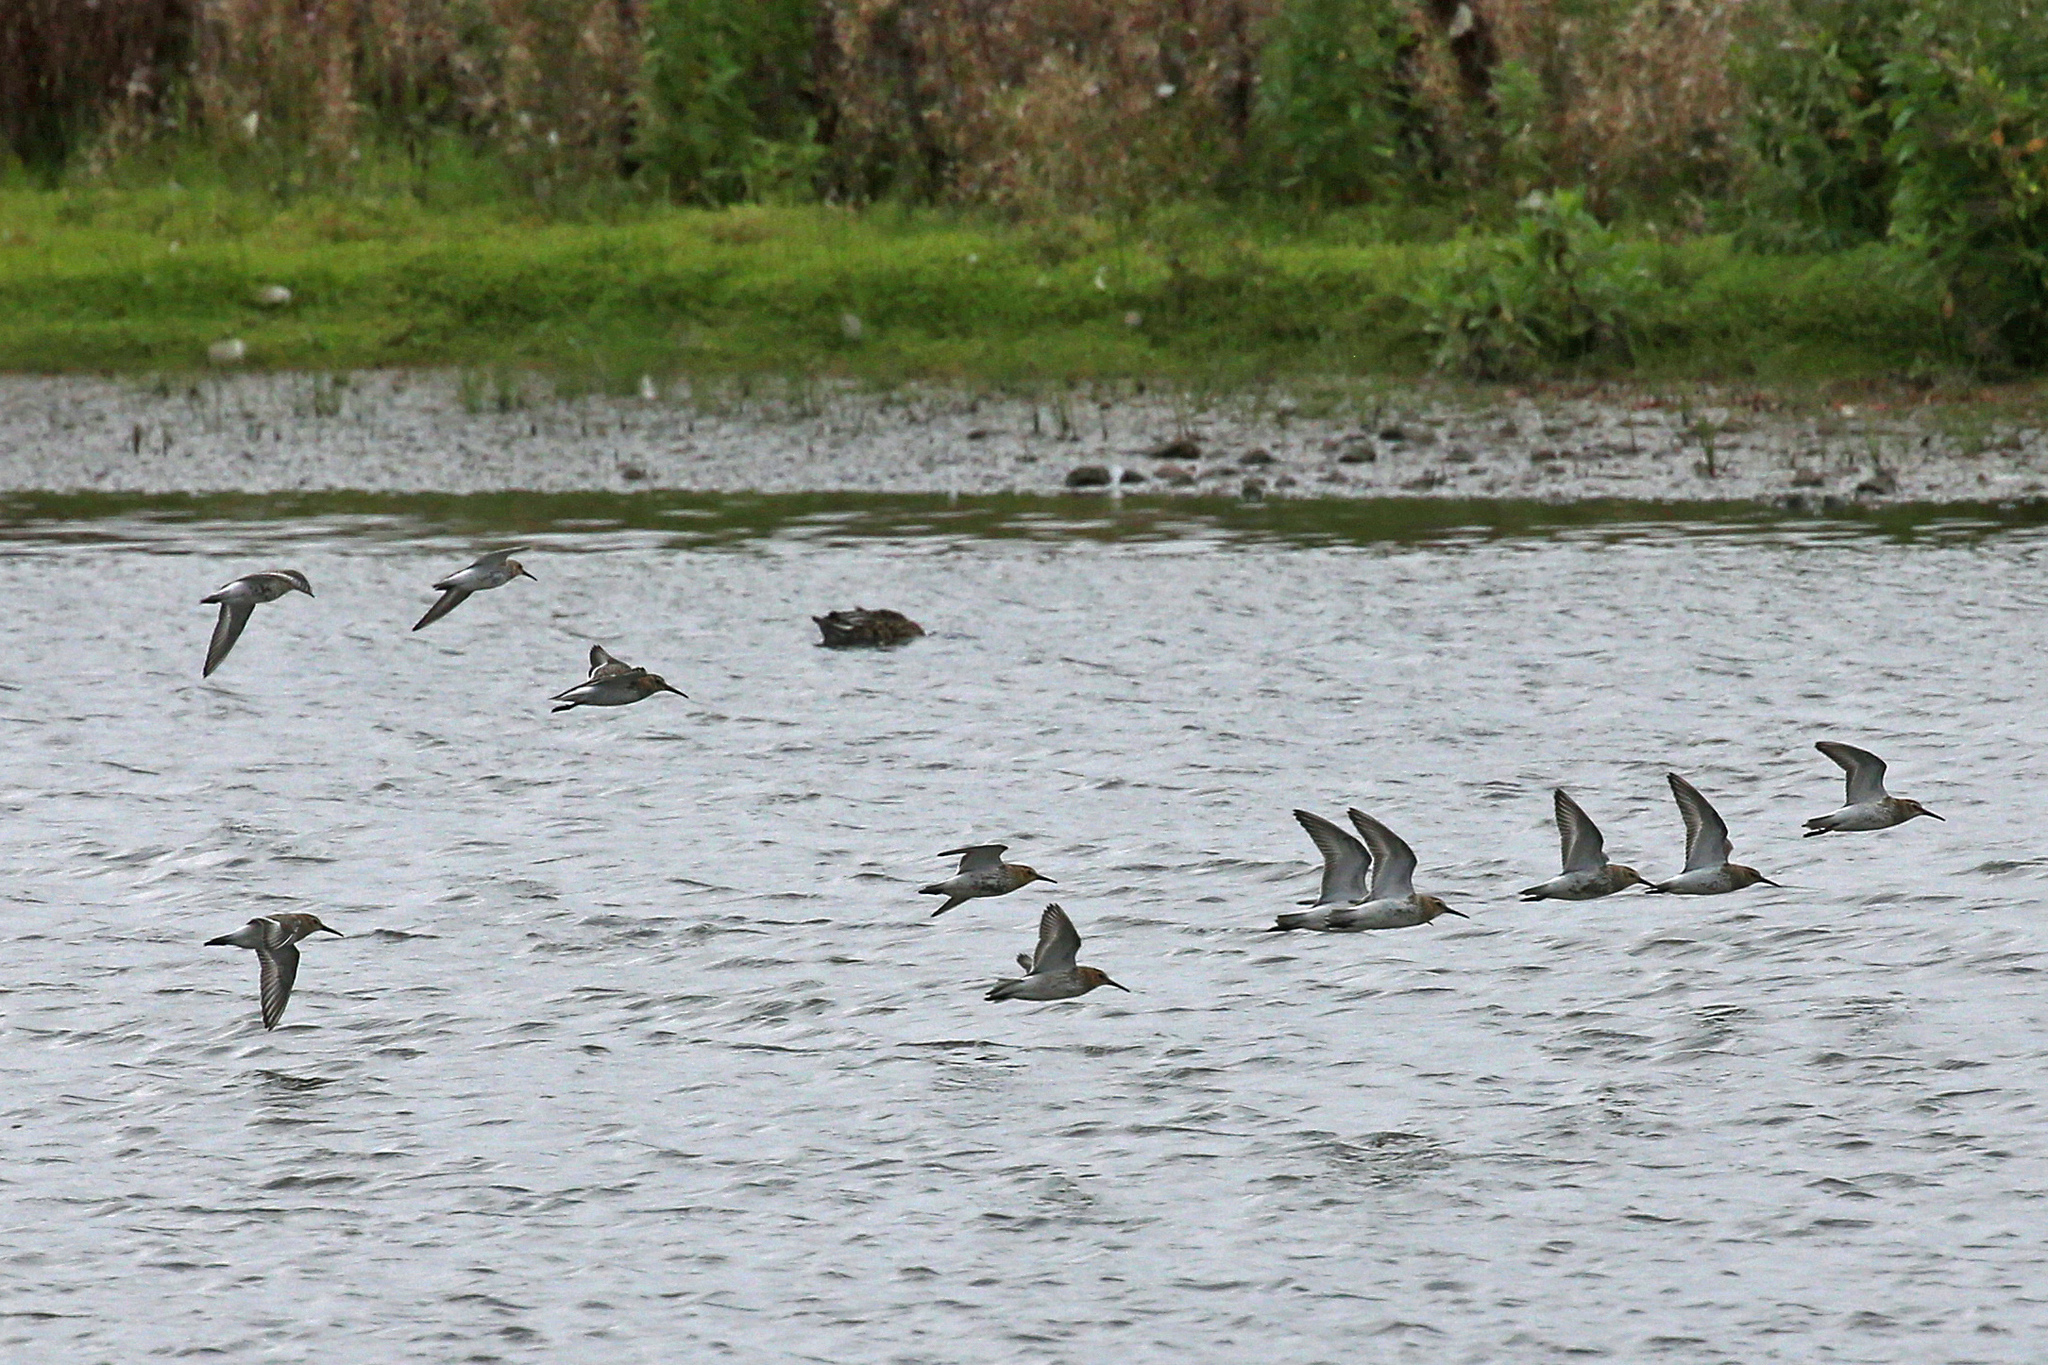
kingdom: Animalia
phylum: Chordata
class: Aves
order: Charadriiformes
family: Scolopacidae
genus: Calidris
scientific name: Calidris alpina
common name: Dunlin
